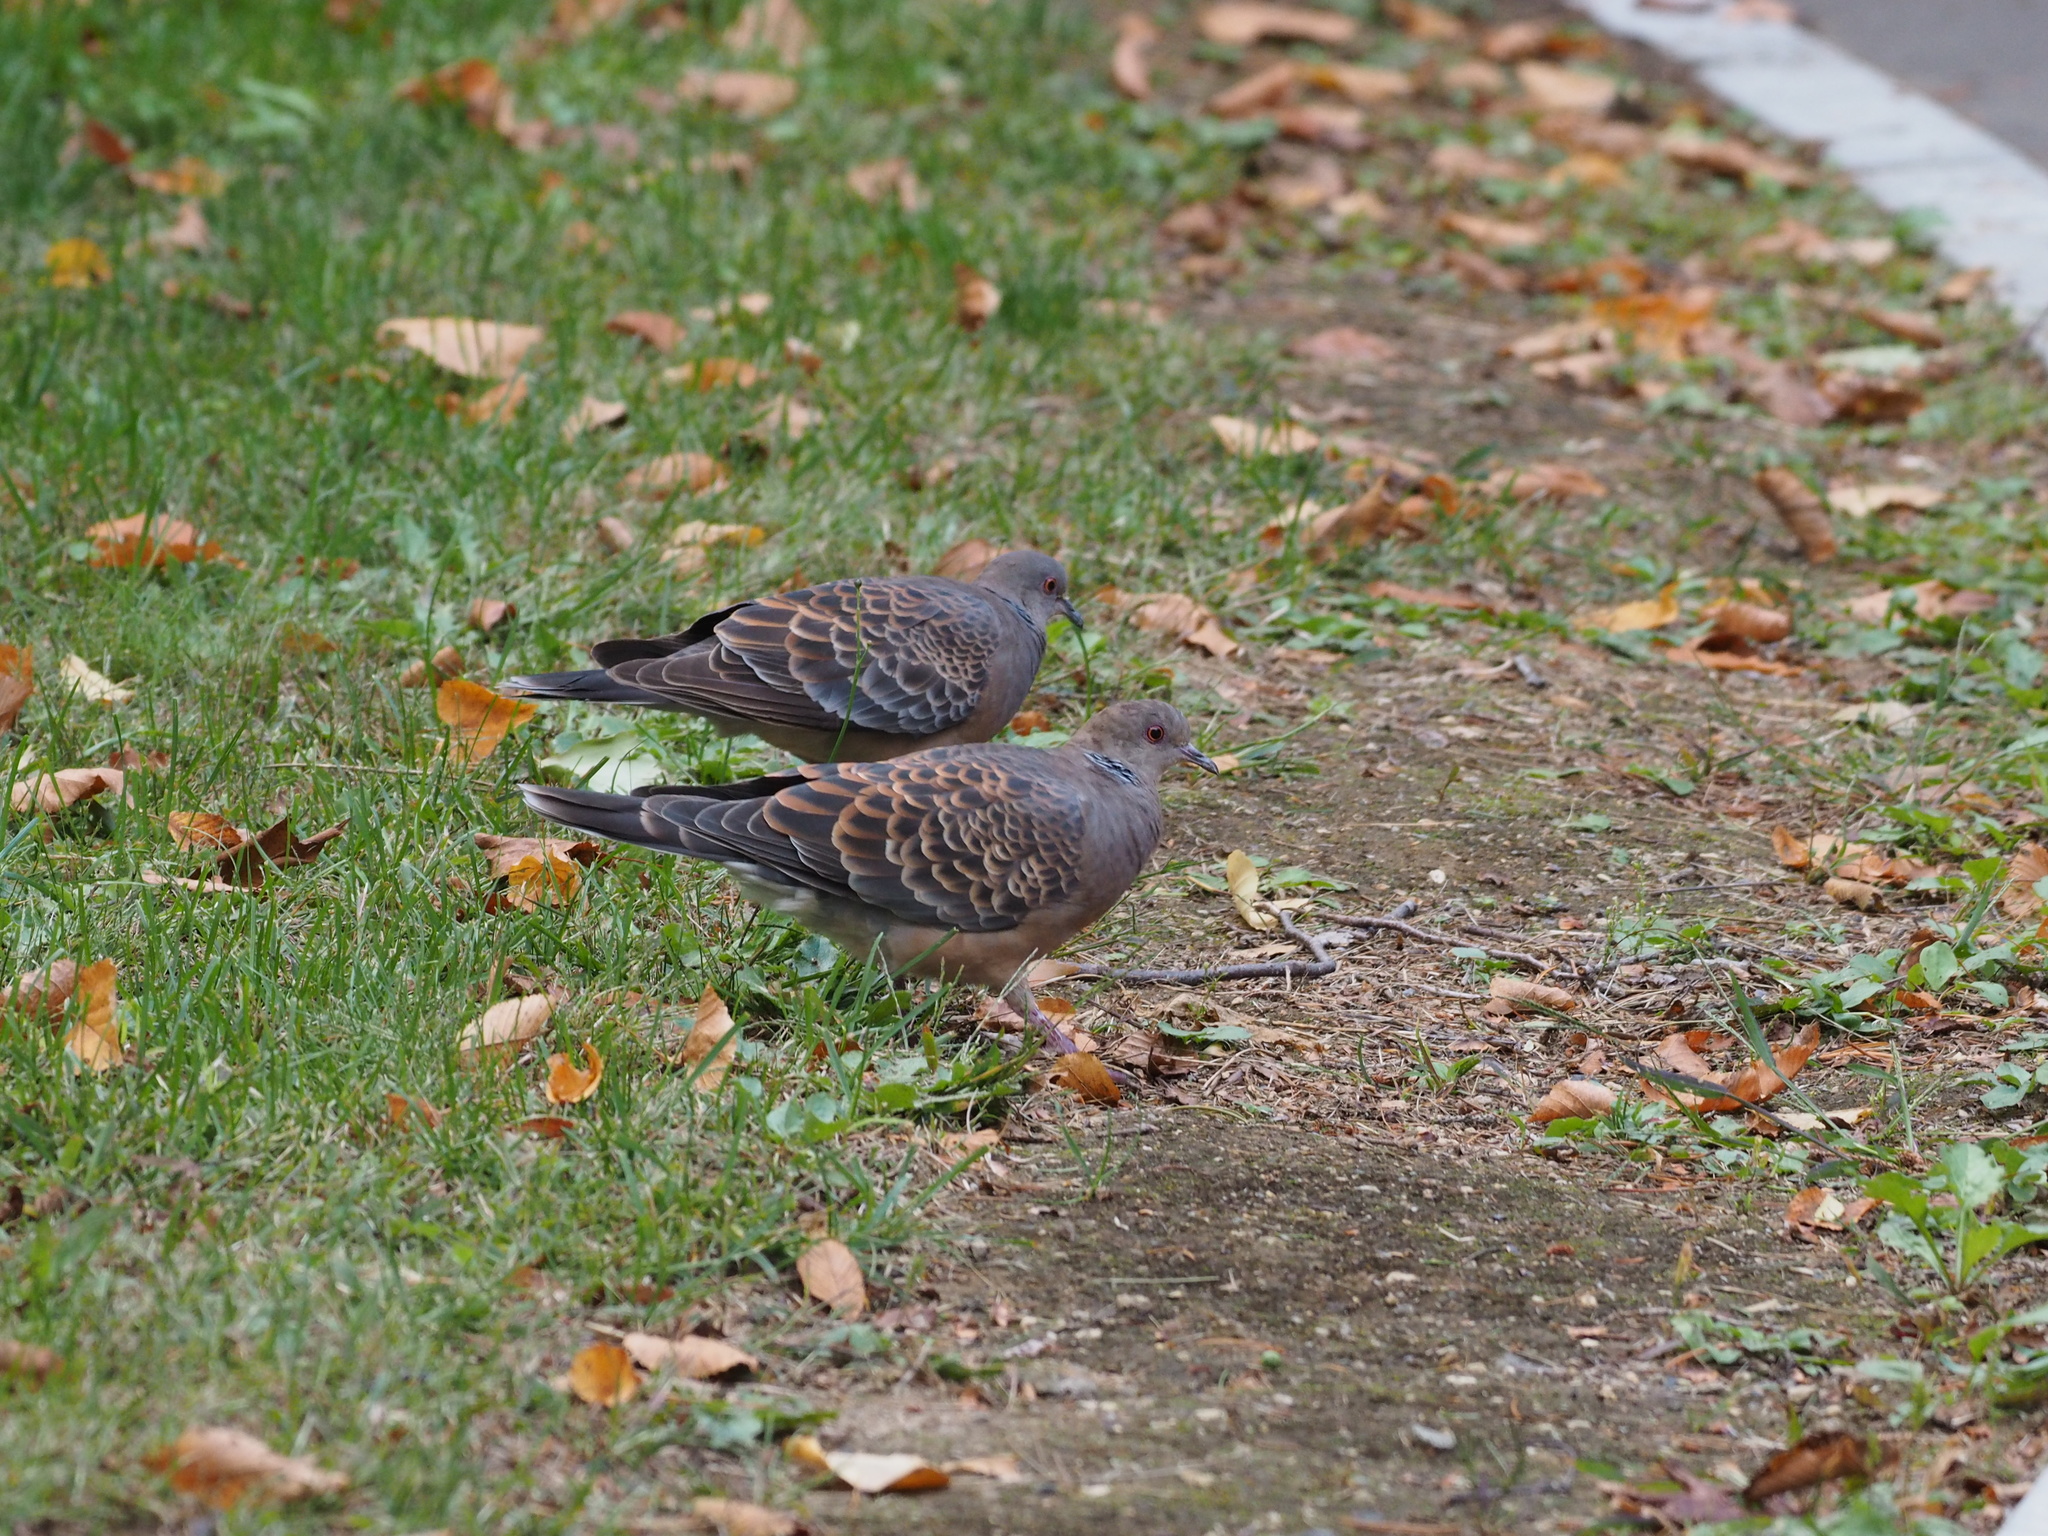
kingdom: Animalia
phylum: Chordata
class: Aves
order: Columbiformes
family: Columbidae
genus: Streptopelia
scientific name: Streptopelia orientalis
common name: Oriental turtle dove
